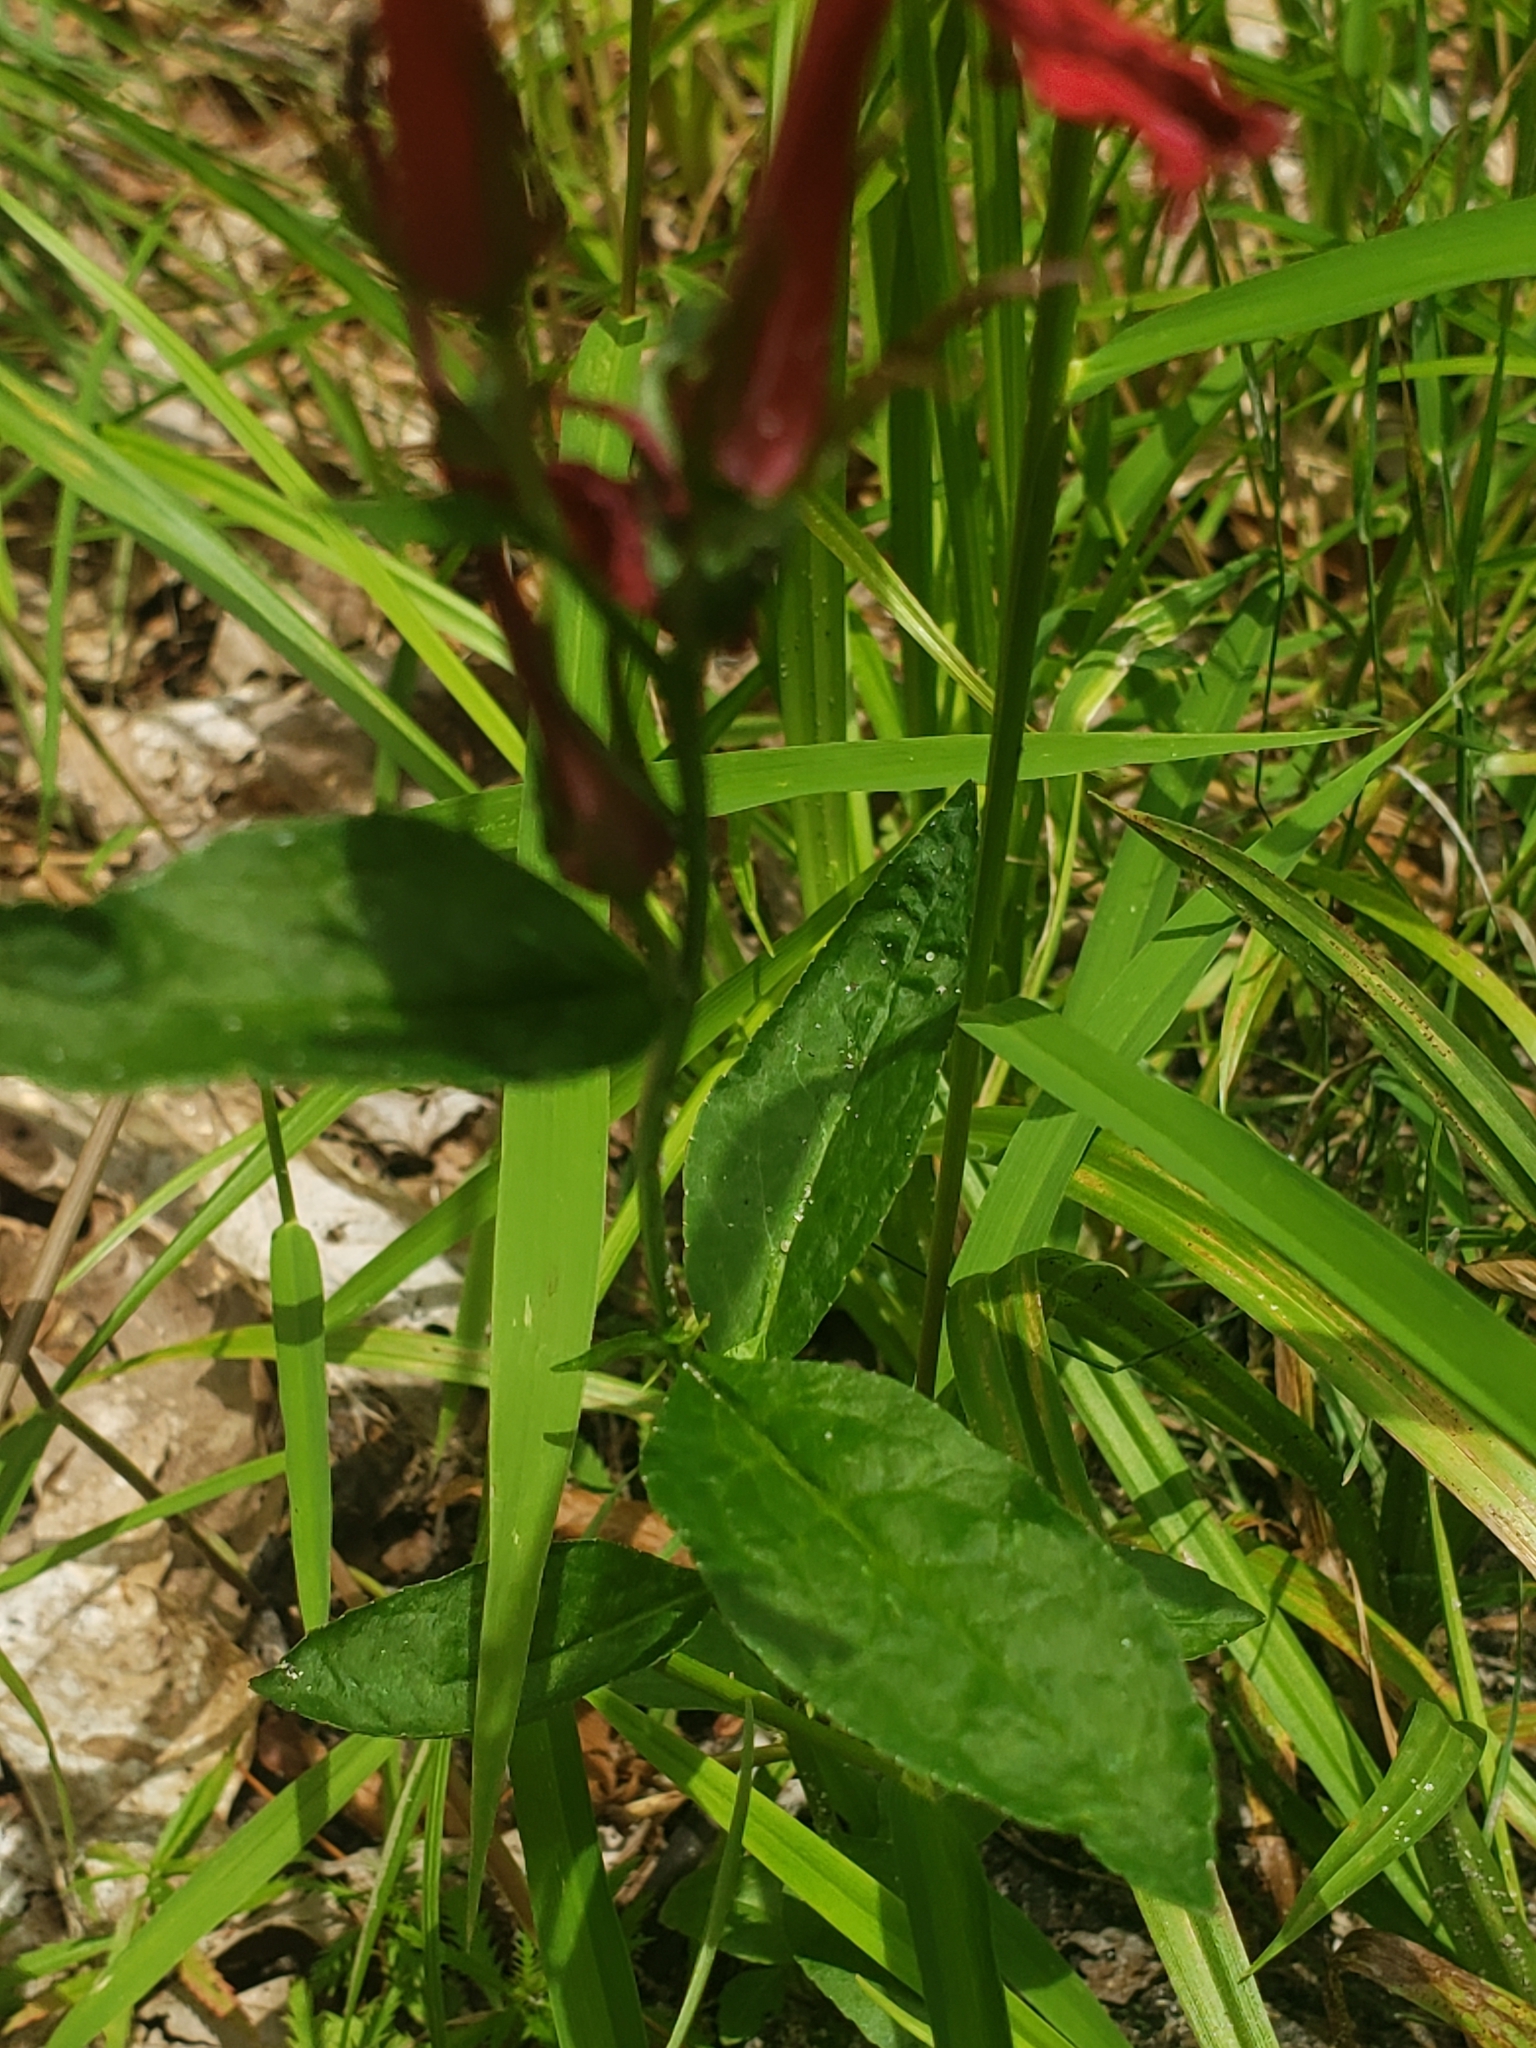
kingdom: Plantae
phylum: Tracheophyta
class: Magnoliopsida
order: Asterales
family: Campanulaceae
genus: Lobelia
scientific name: Lobelia cardinalis
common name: Cardinal flower
